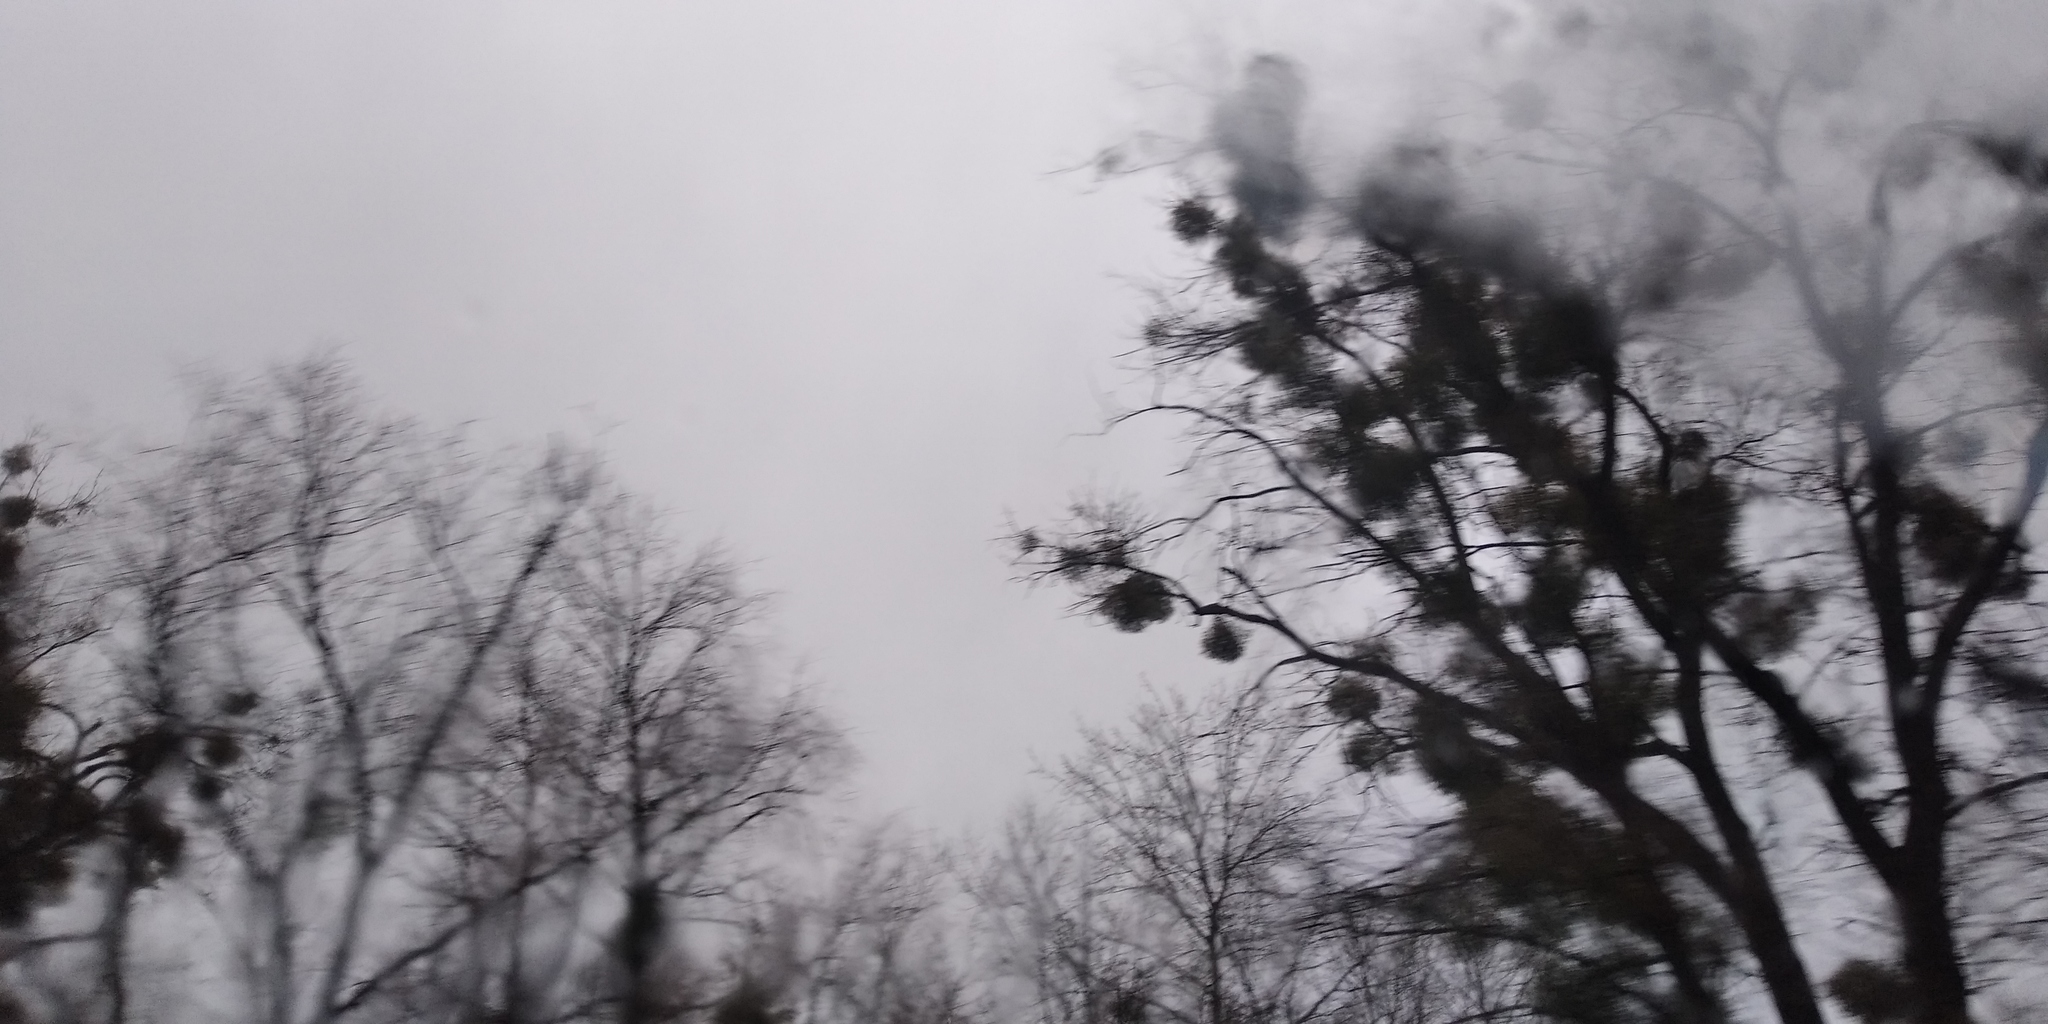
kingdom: Plantae
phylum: Tracheophyta
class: Magnoliopsida
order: Santalales
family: Viscaceae
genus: Viscum
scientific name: Viscum album
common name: Mistletoe
